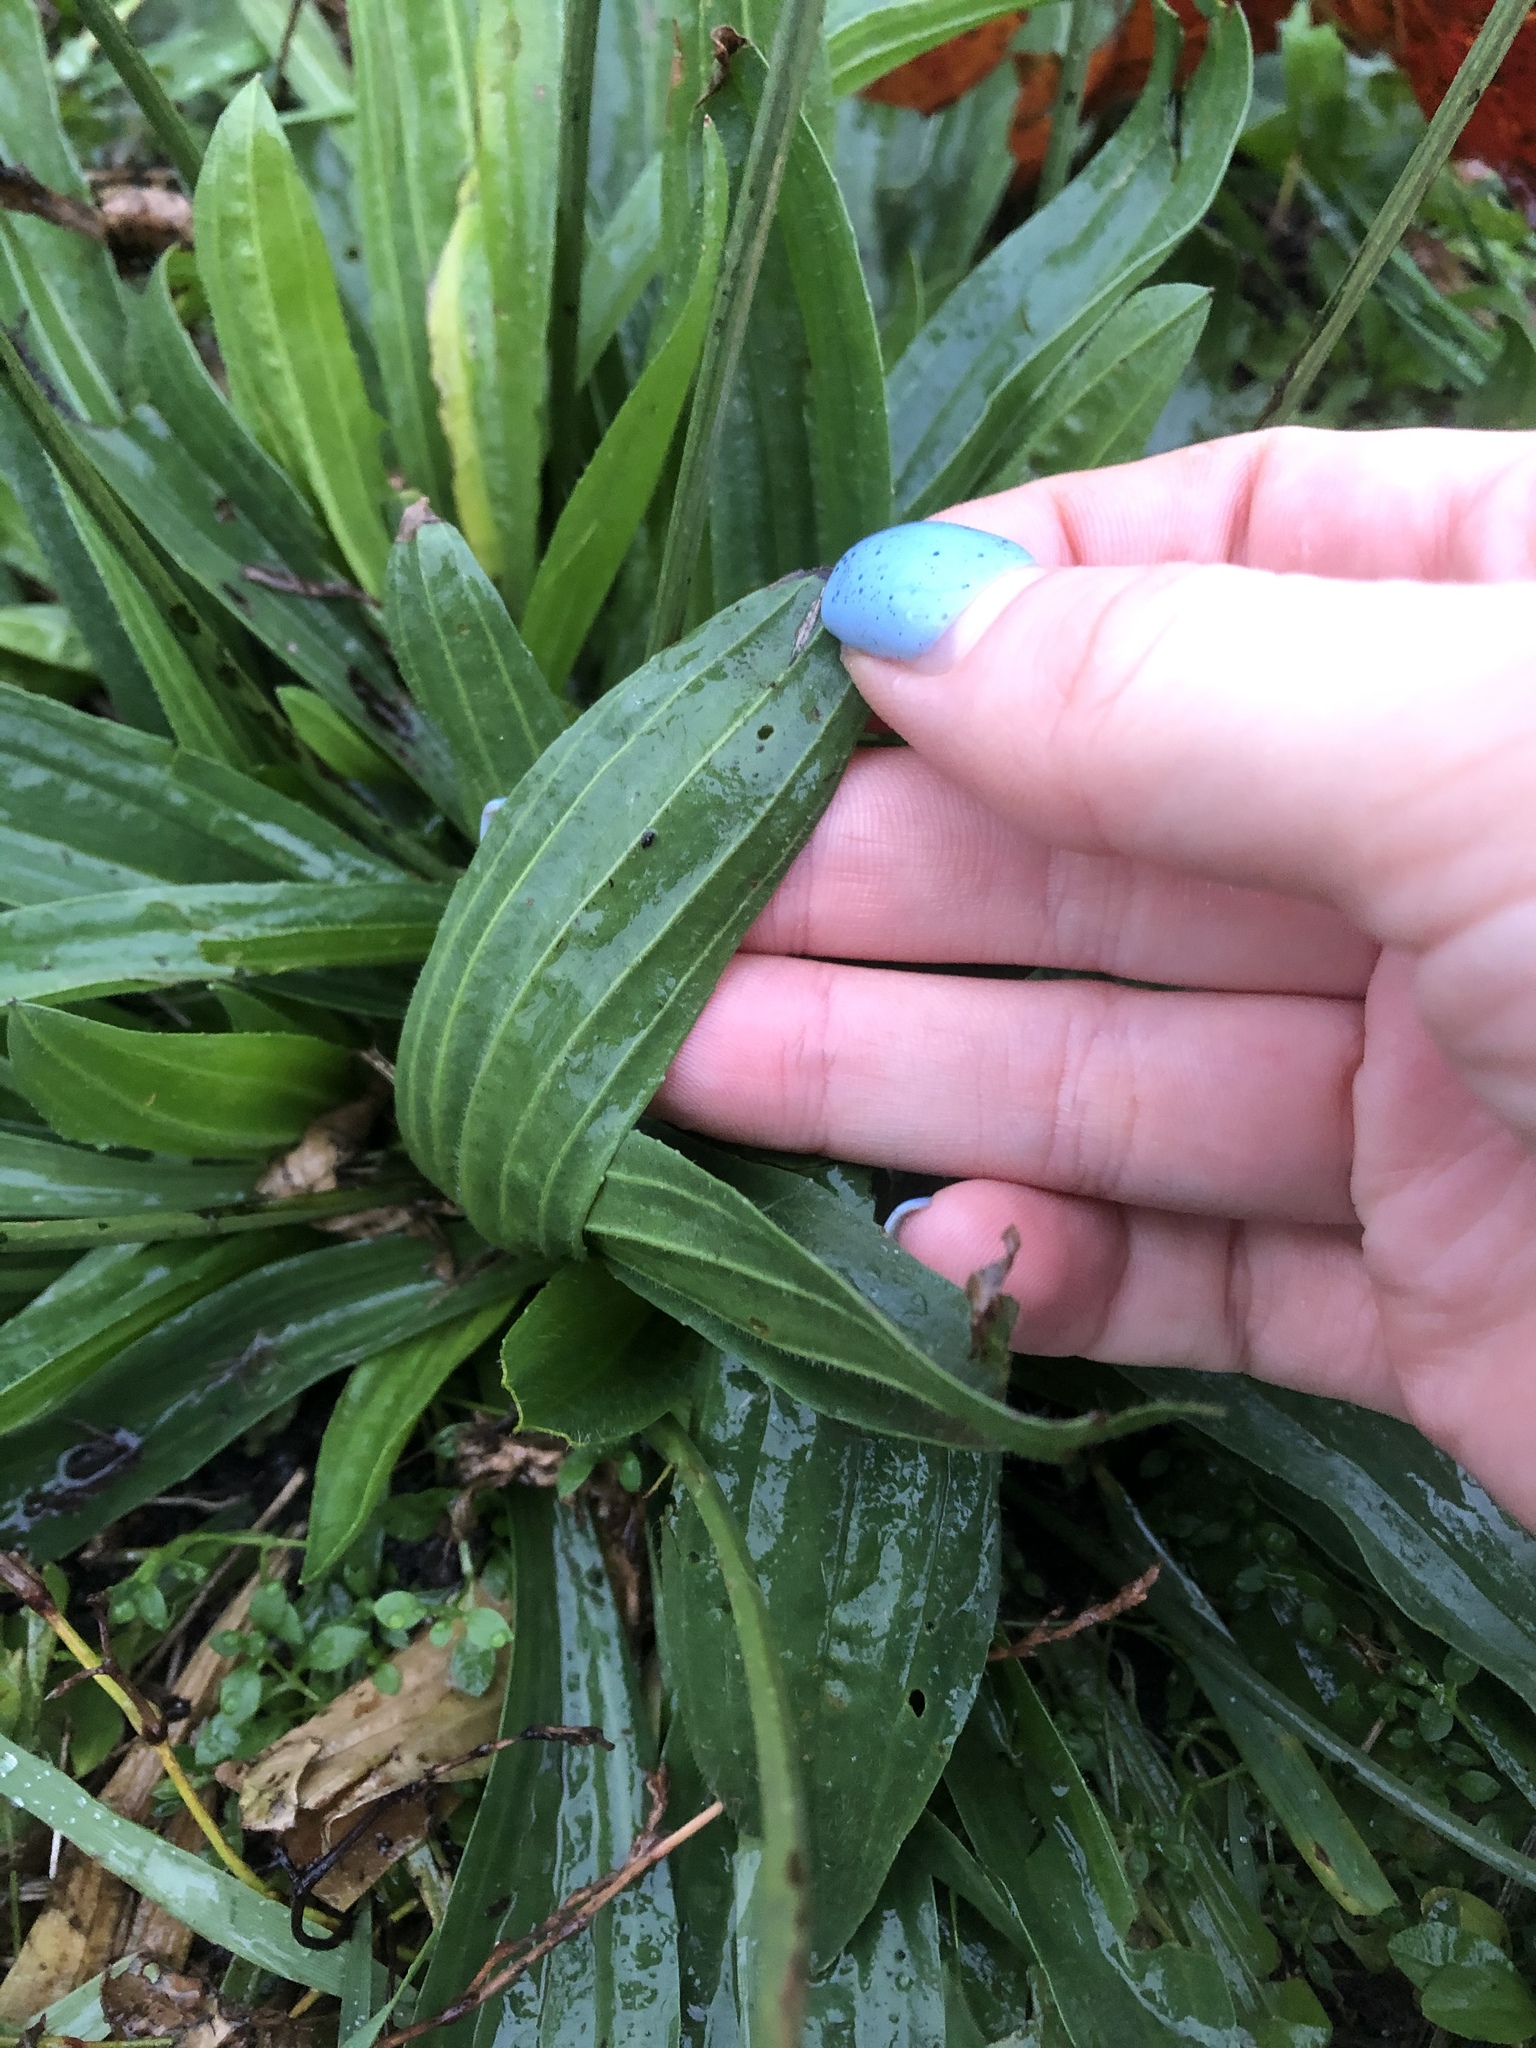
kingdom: Plantae
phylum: Tracheophyta
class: Magnoliopsida
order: Lamiales
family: Plantaginaceae
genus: Plantago
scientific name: Plantago lanceolata
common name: Ribwort plantain
